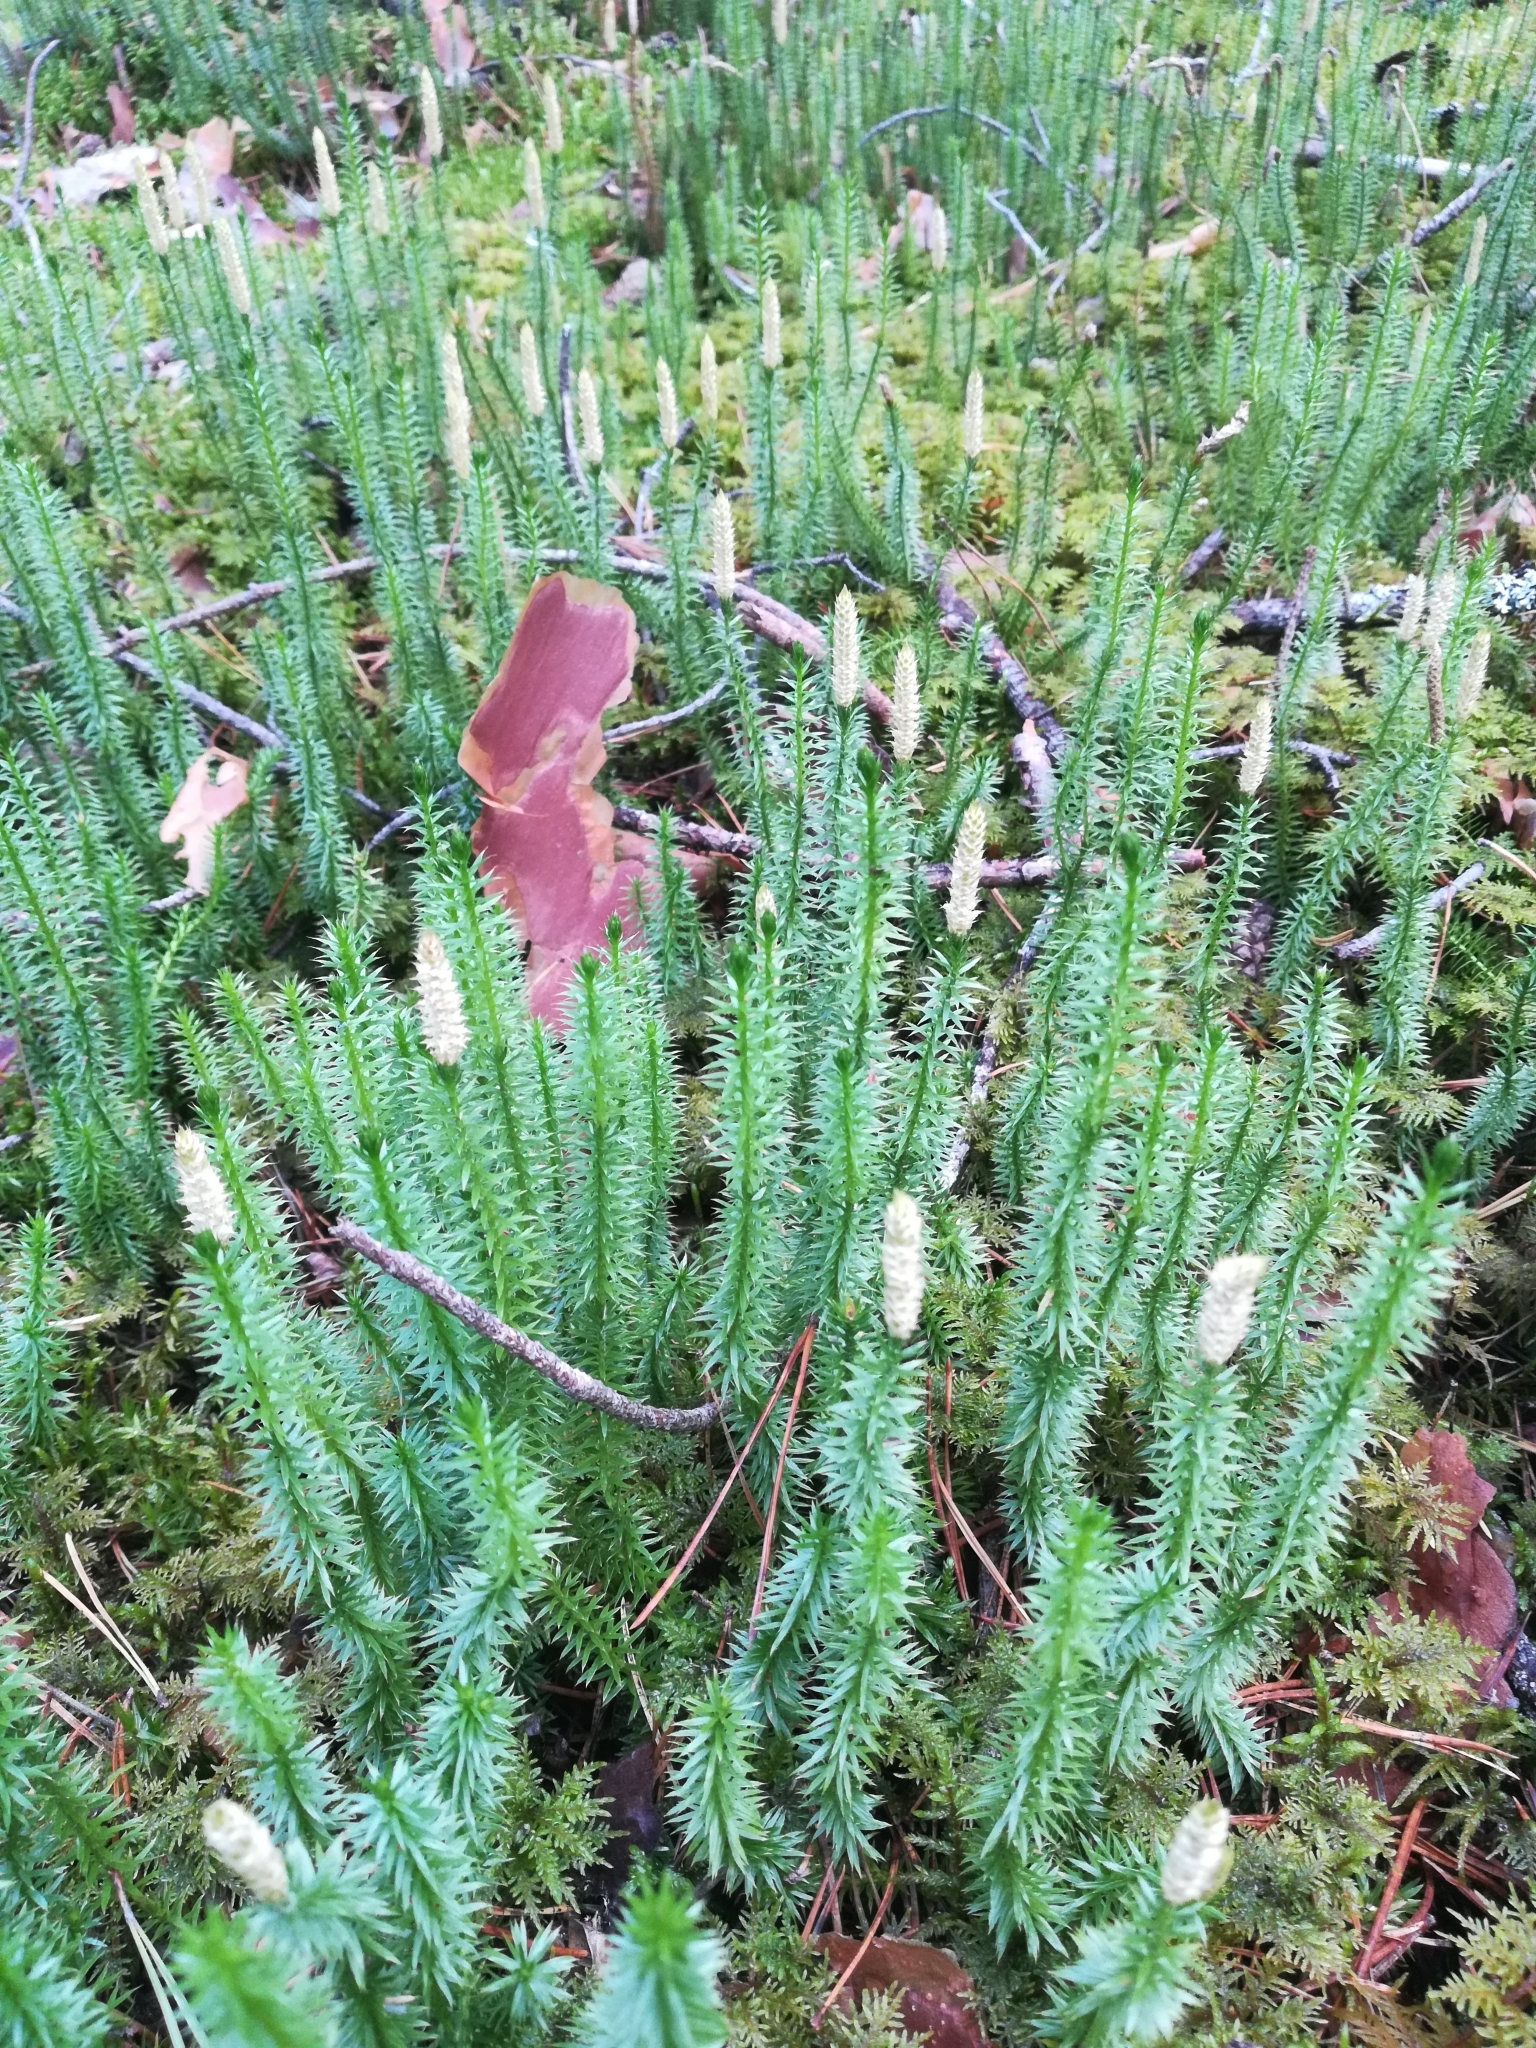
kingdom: Plantae
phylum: Tracheophyta
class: Lycopodiopsida
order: Lycopodiales
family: Lycopodiaceae
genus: Spinulum
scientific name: Spinulum annotinum
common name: Interrupted club-moss
